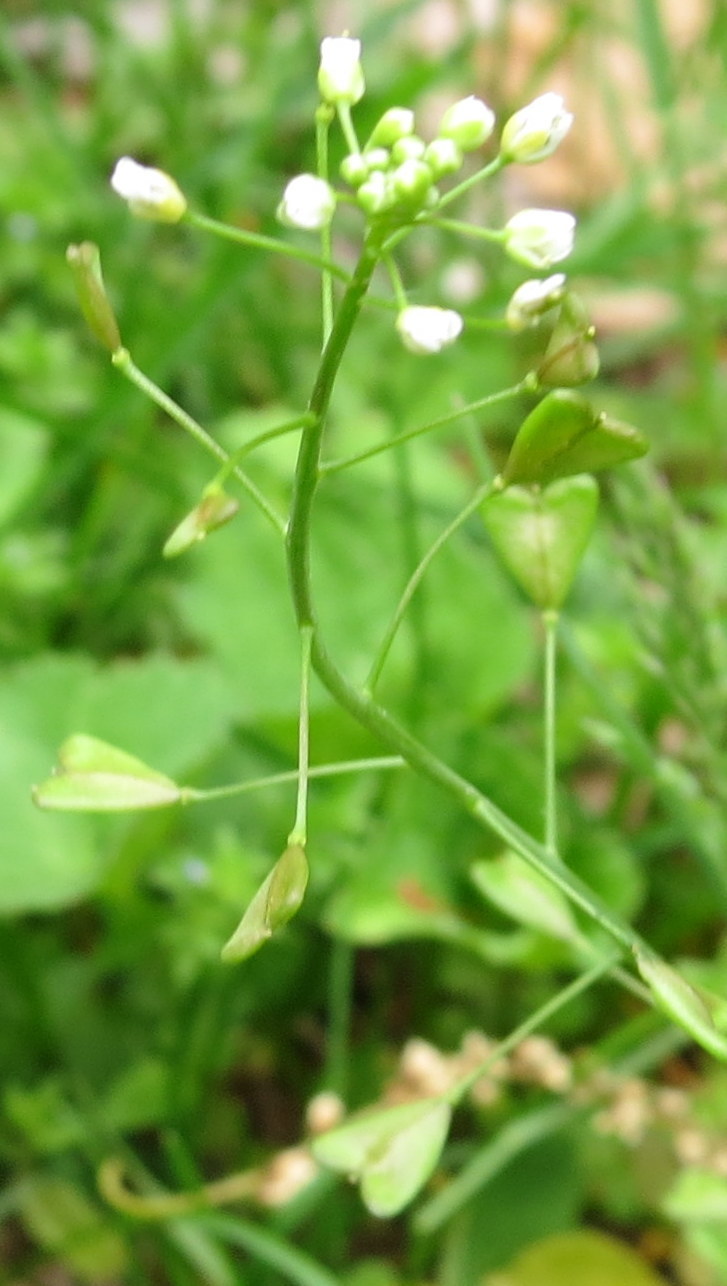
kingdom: Plantae
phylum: Tracheophyta
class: Magnoliopsida
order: Brassicales
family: Brassicaceae
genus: Capsella
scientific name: Capsella bursa-pastoris
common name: Shepherd's purse
